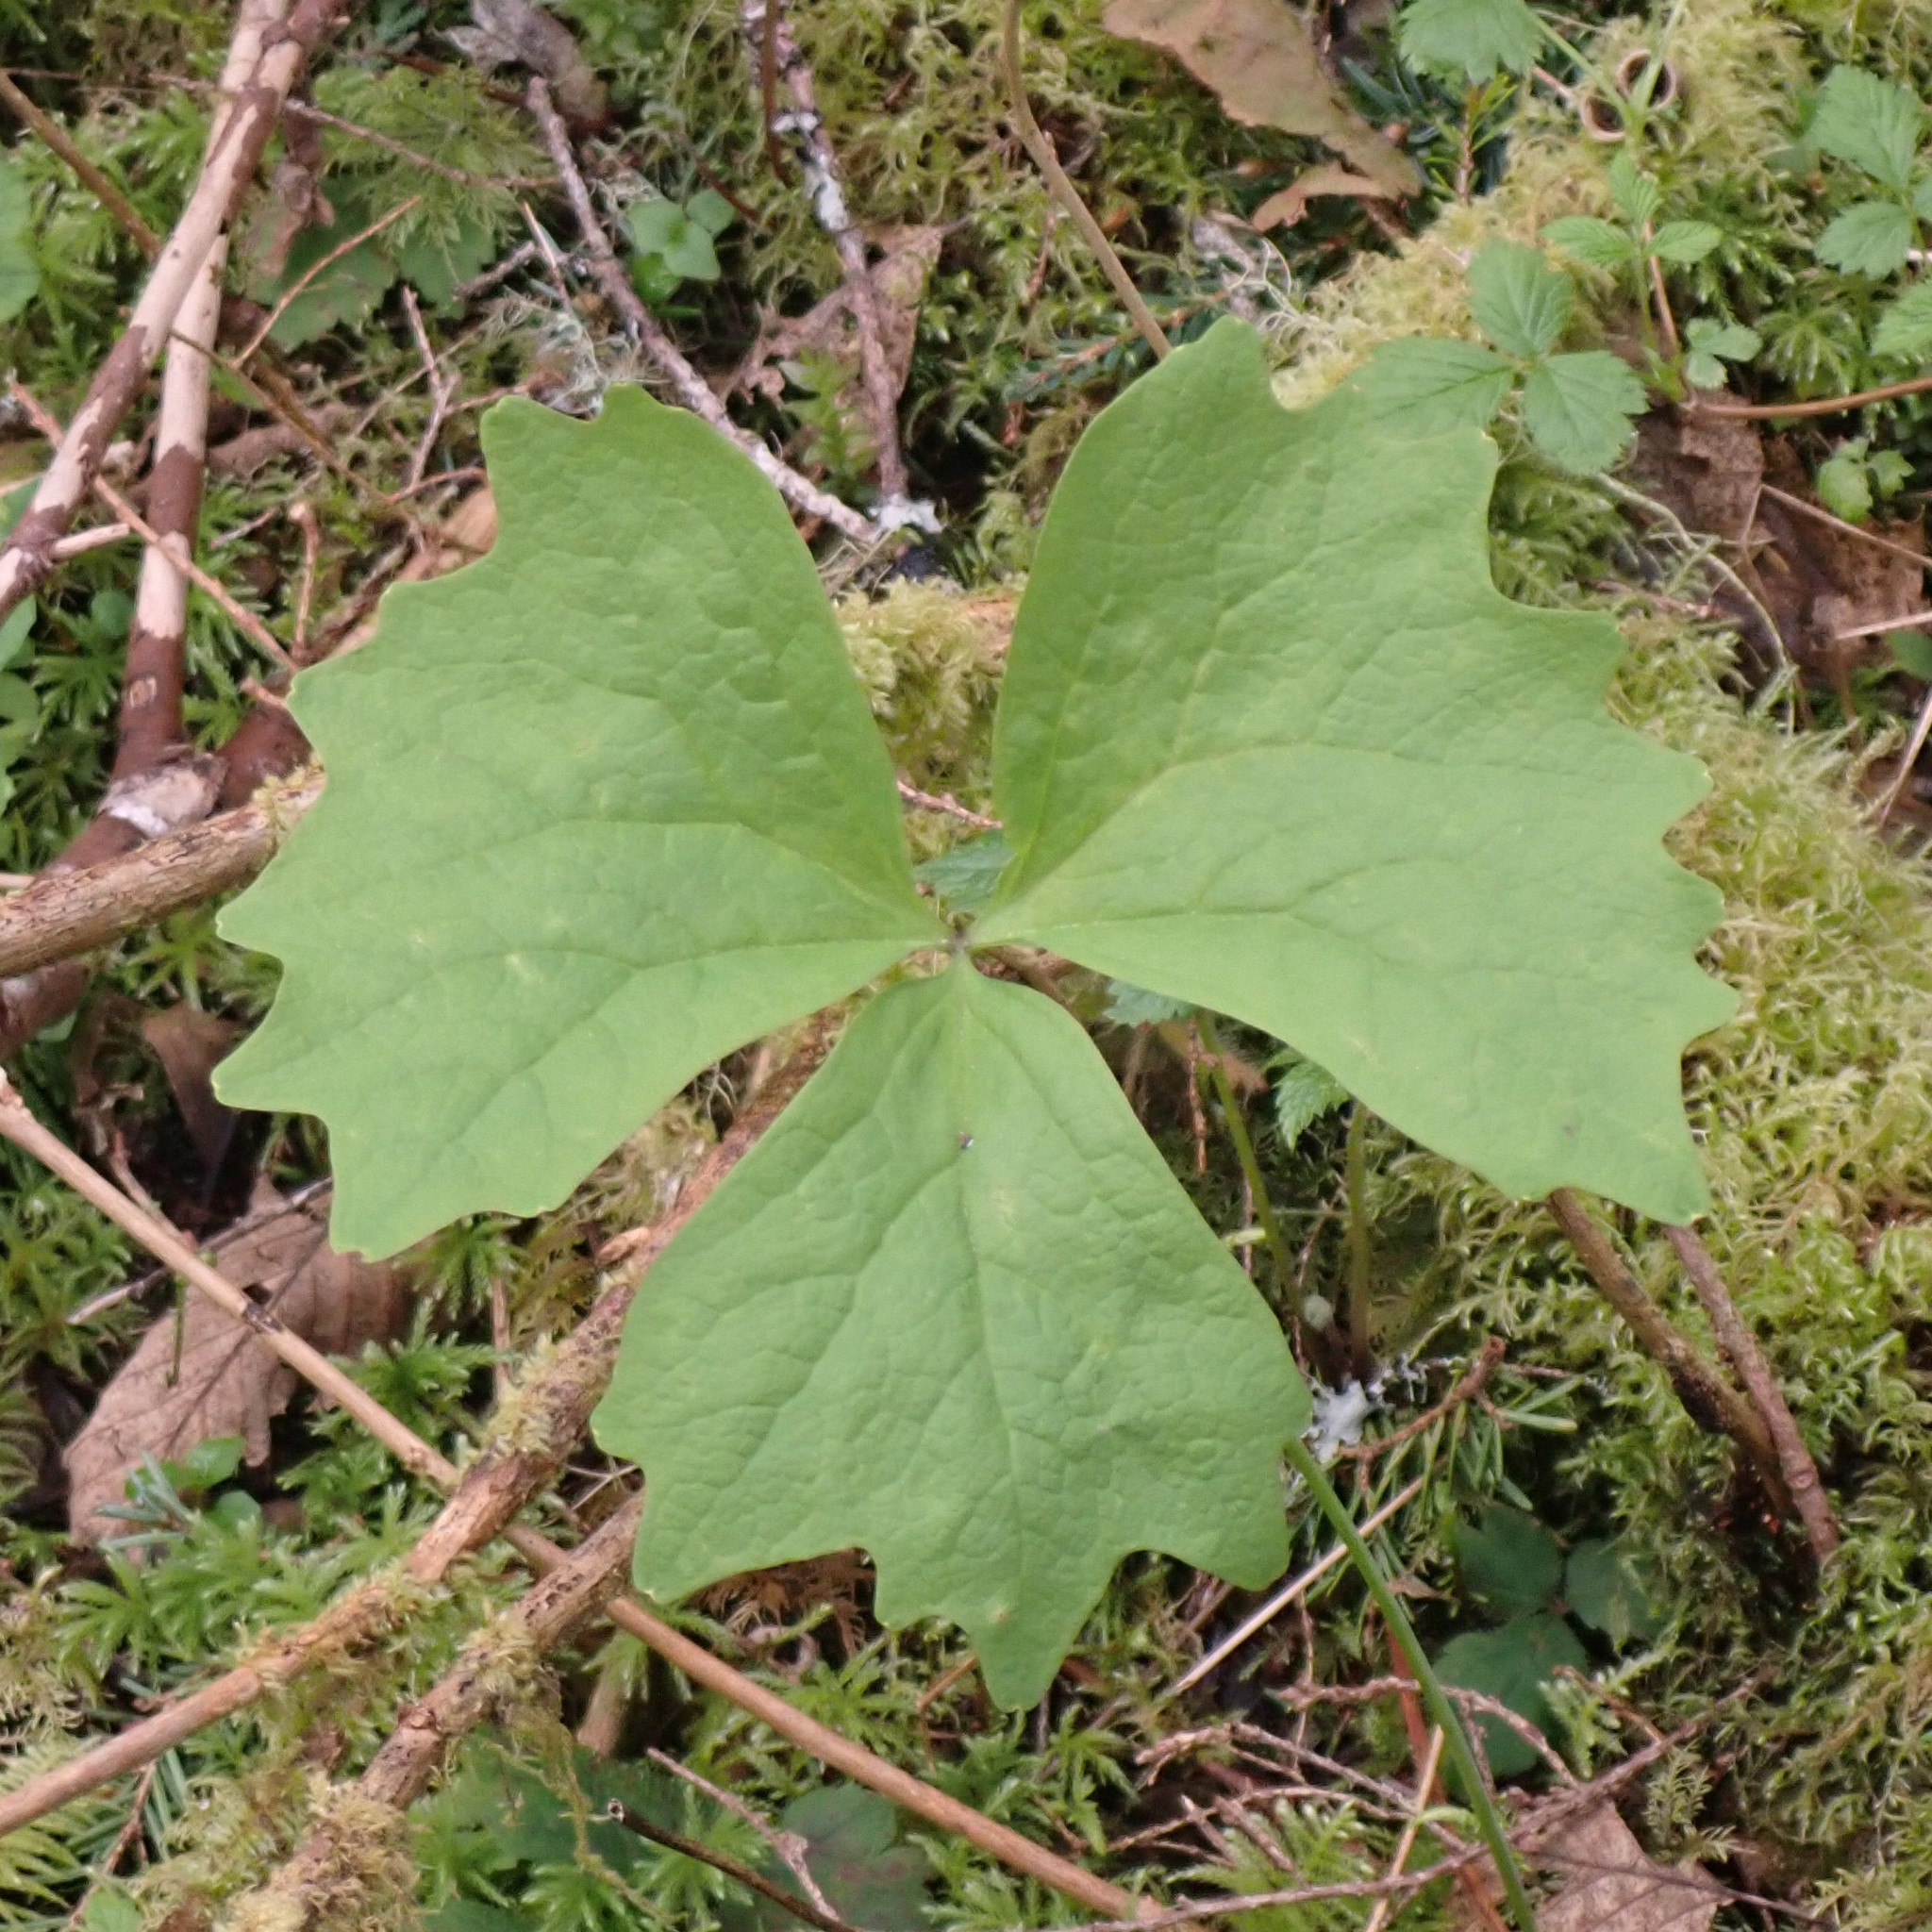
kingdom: Plantae
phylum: Tracheophyta
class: Magnoliopsida
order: Ranunculales
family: Berberidaceae
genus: Achlys
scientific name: Achlys triphylla
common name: Vanilla-leaf
